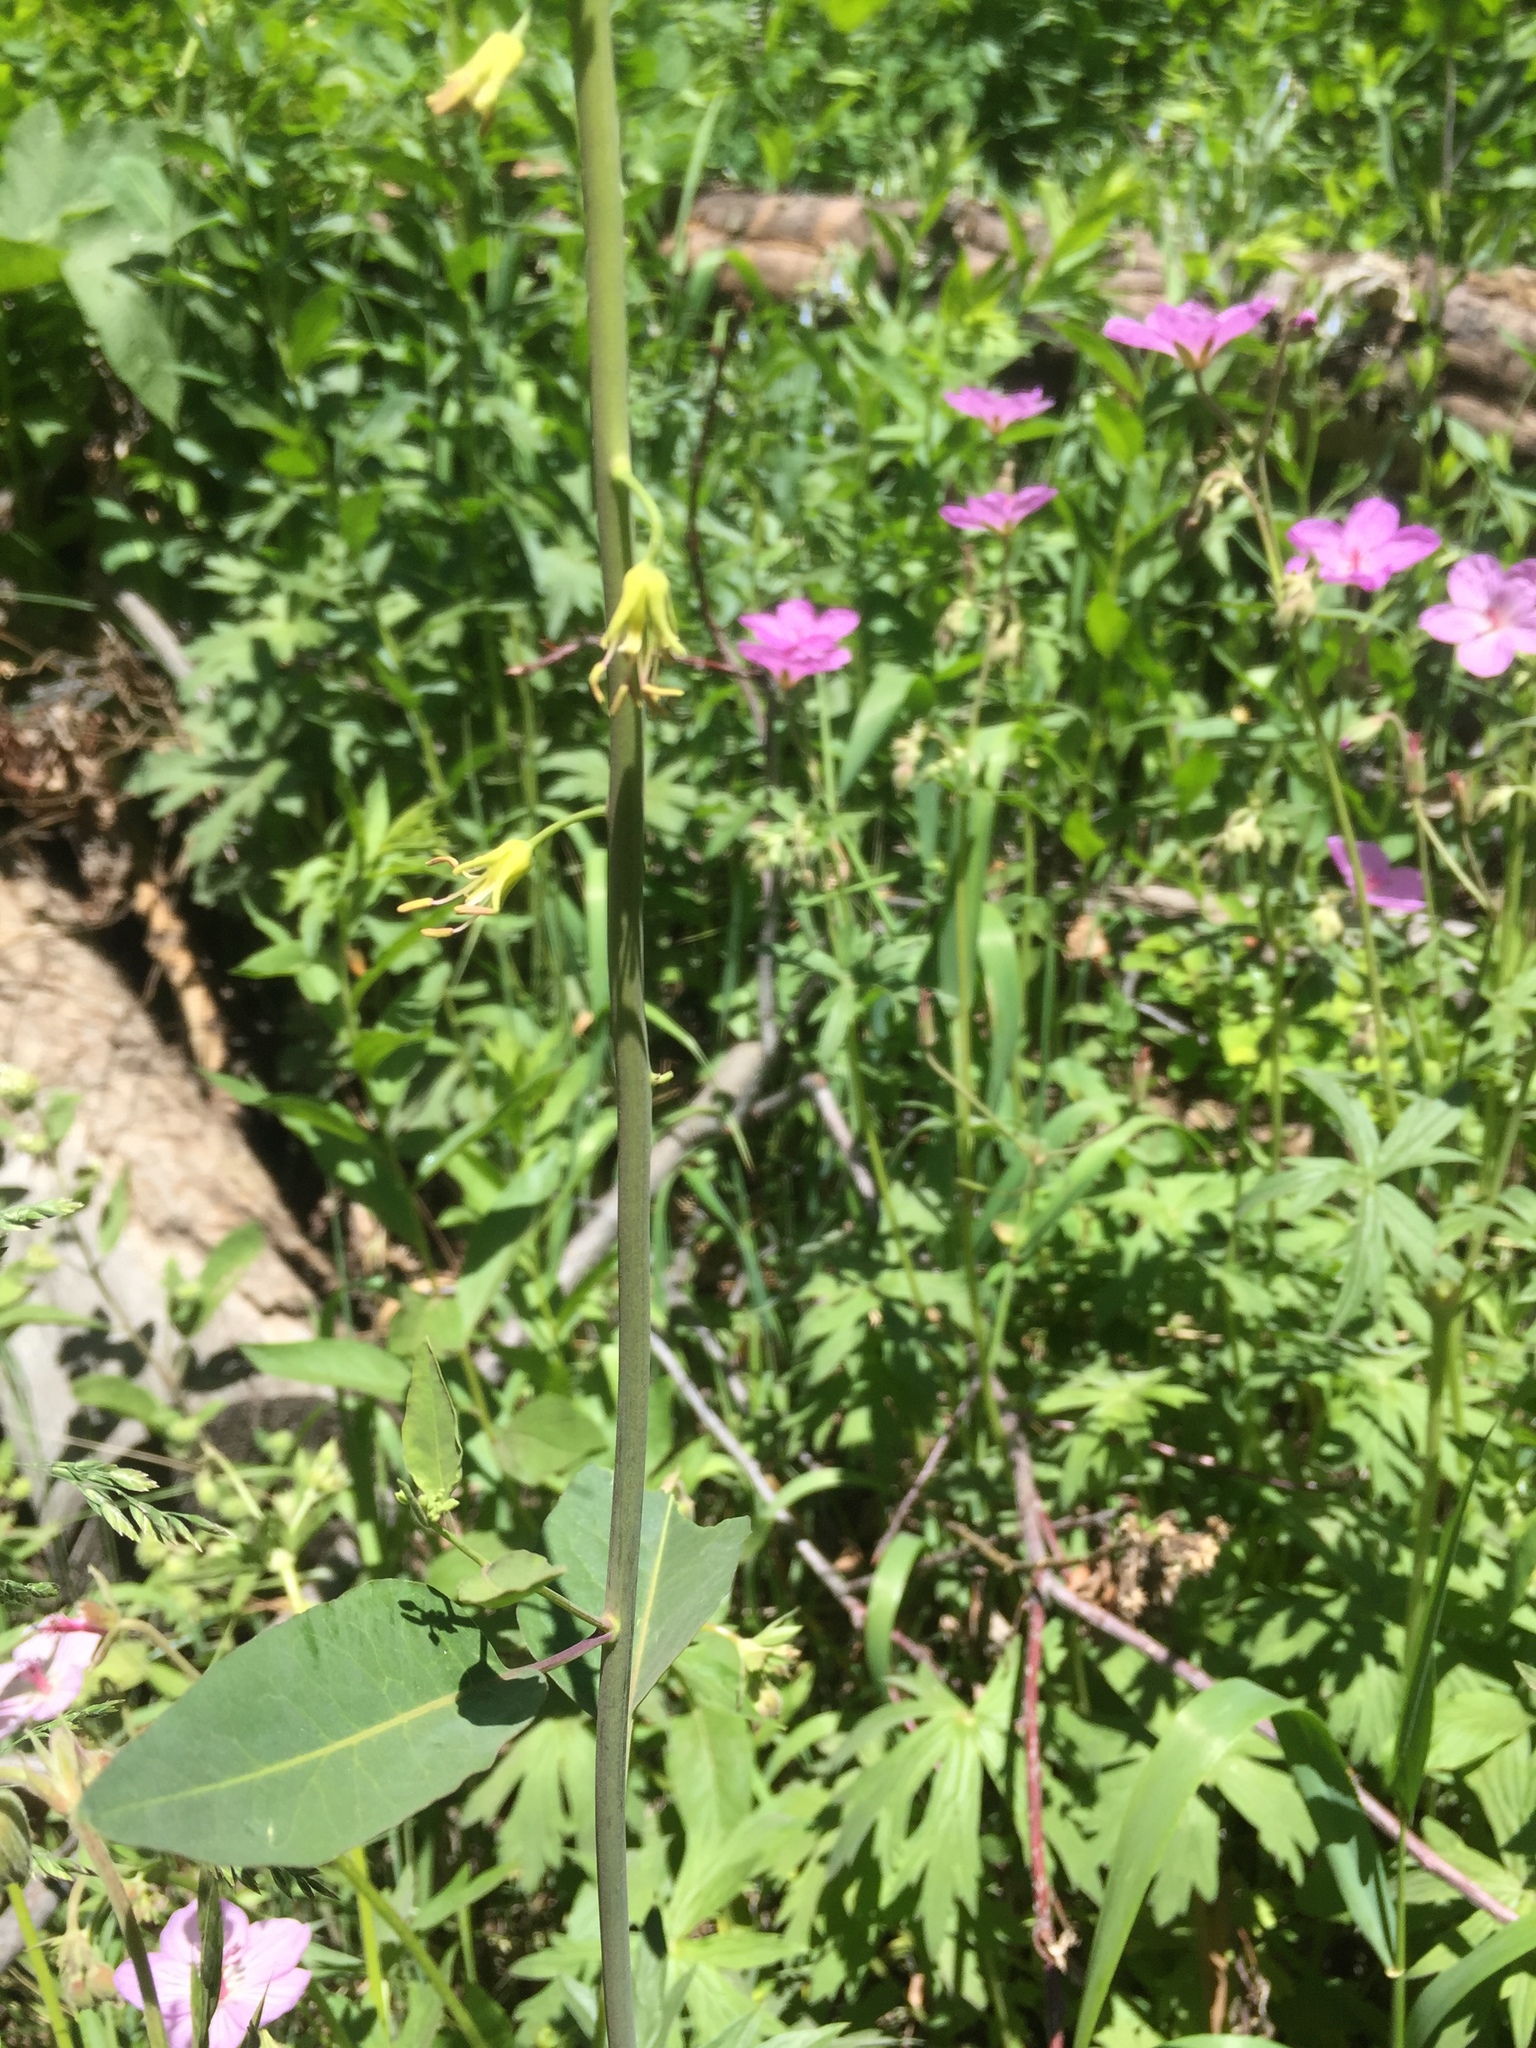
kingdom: Plantae
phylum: Tracheophyta
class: Magnoliopsida
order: Brassicales
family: Brassicaceae
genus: Chlorocrambe
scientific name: Chlorocrambe hastata
